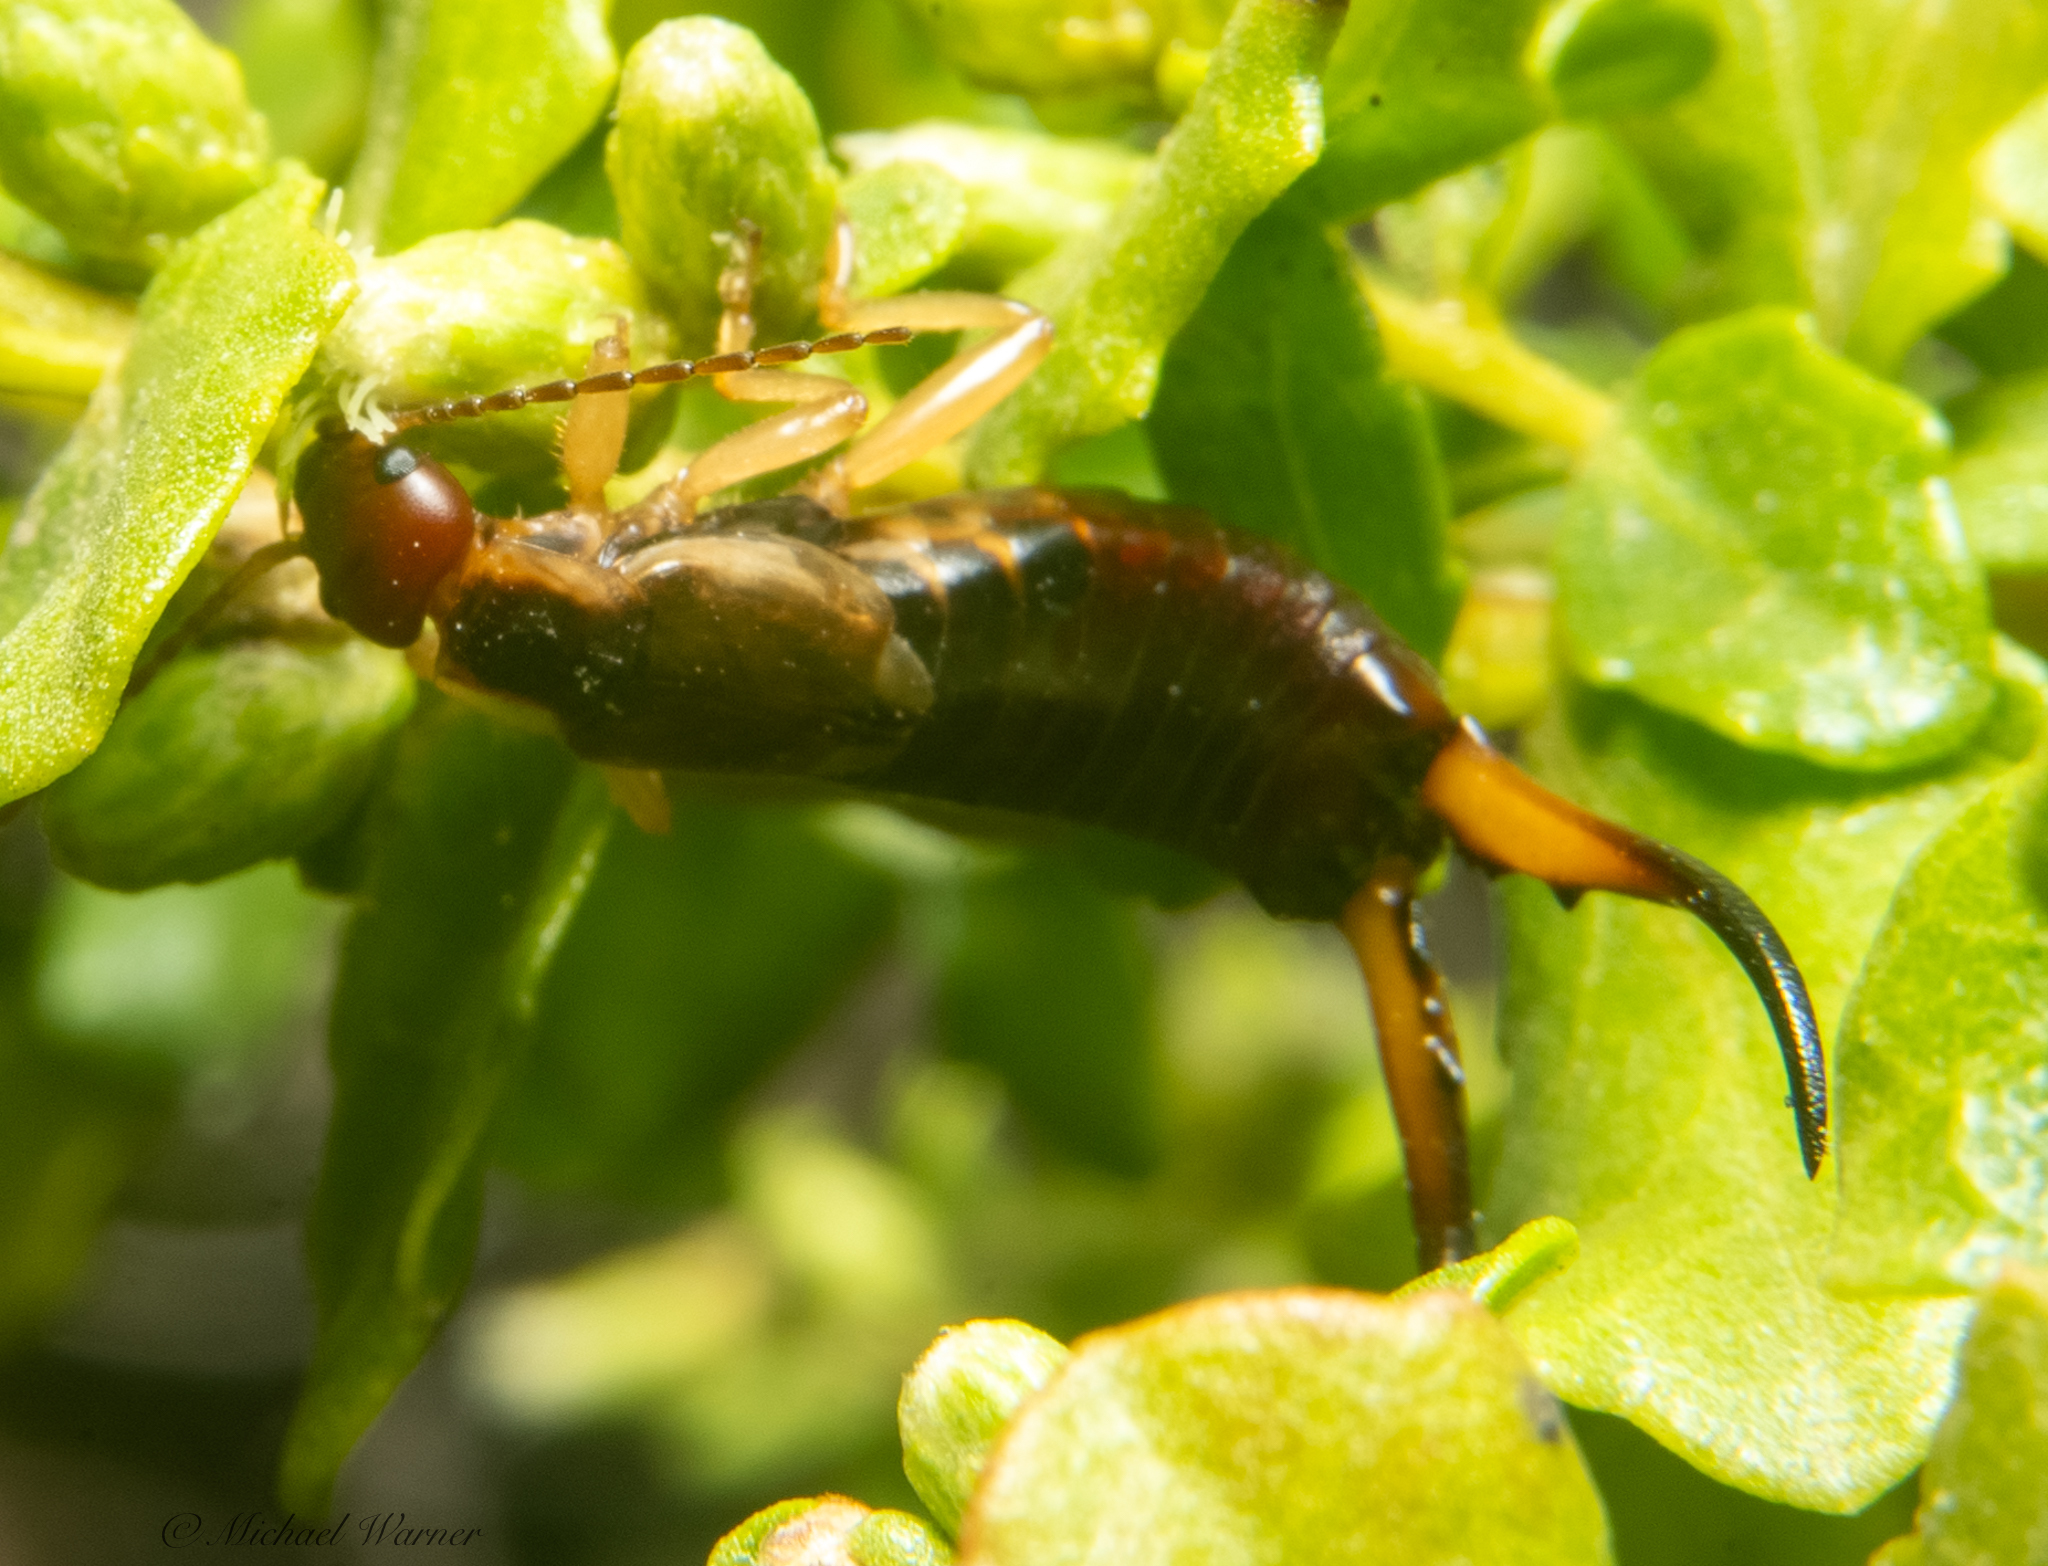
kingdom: Animalia
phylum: Arthropoda
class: Insecta
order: Dermaptera
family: Forficulidae
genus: Forficula
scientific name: Forficula dentata
